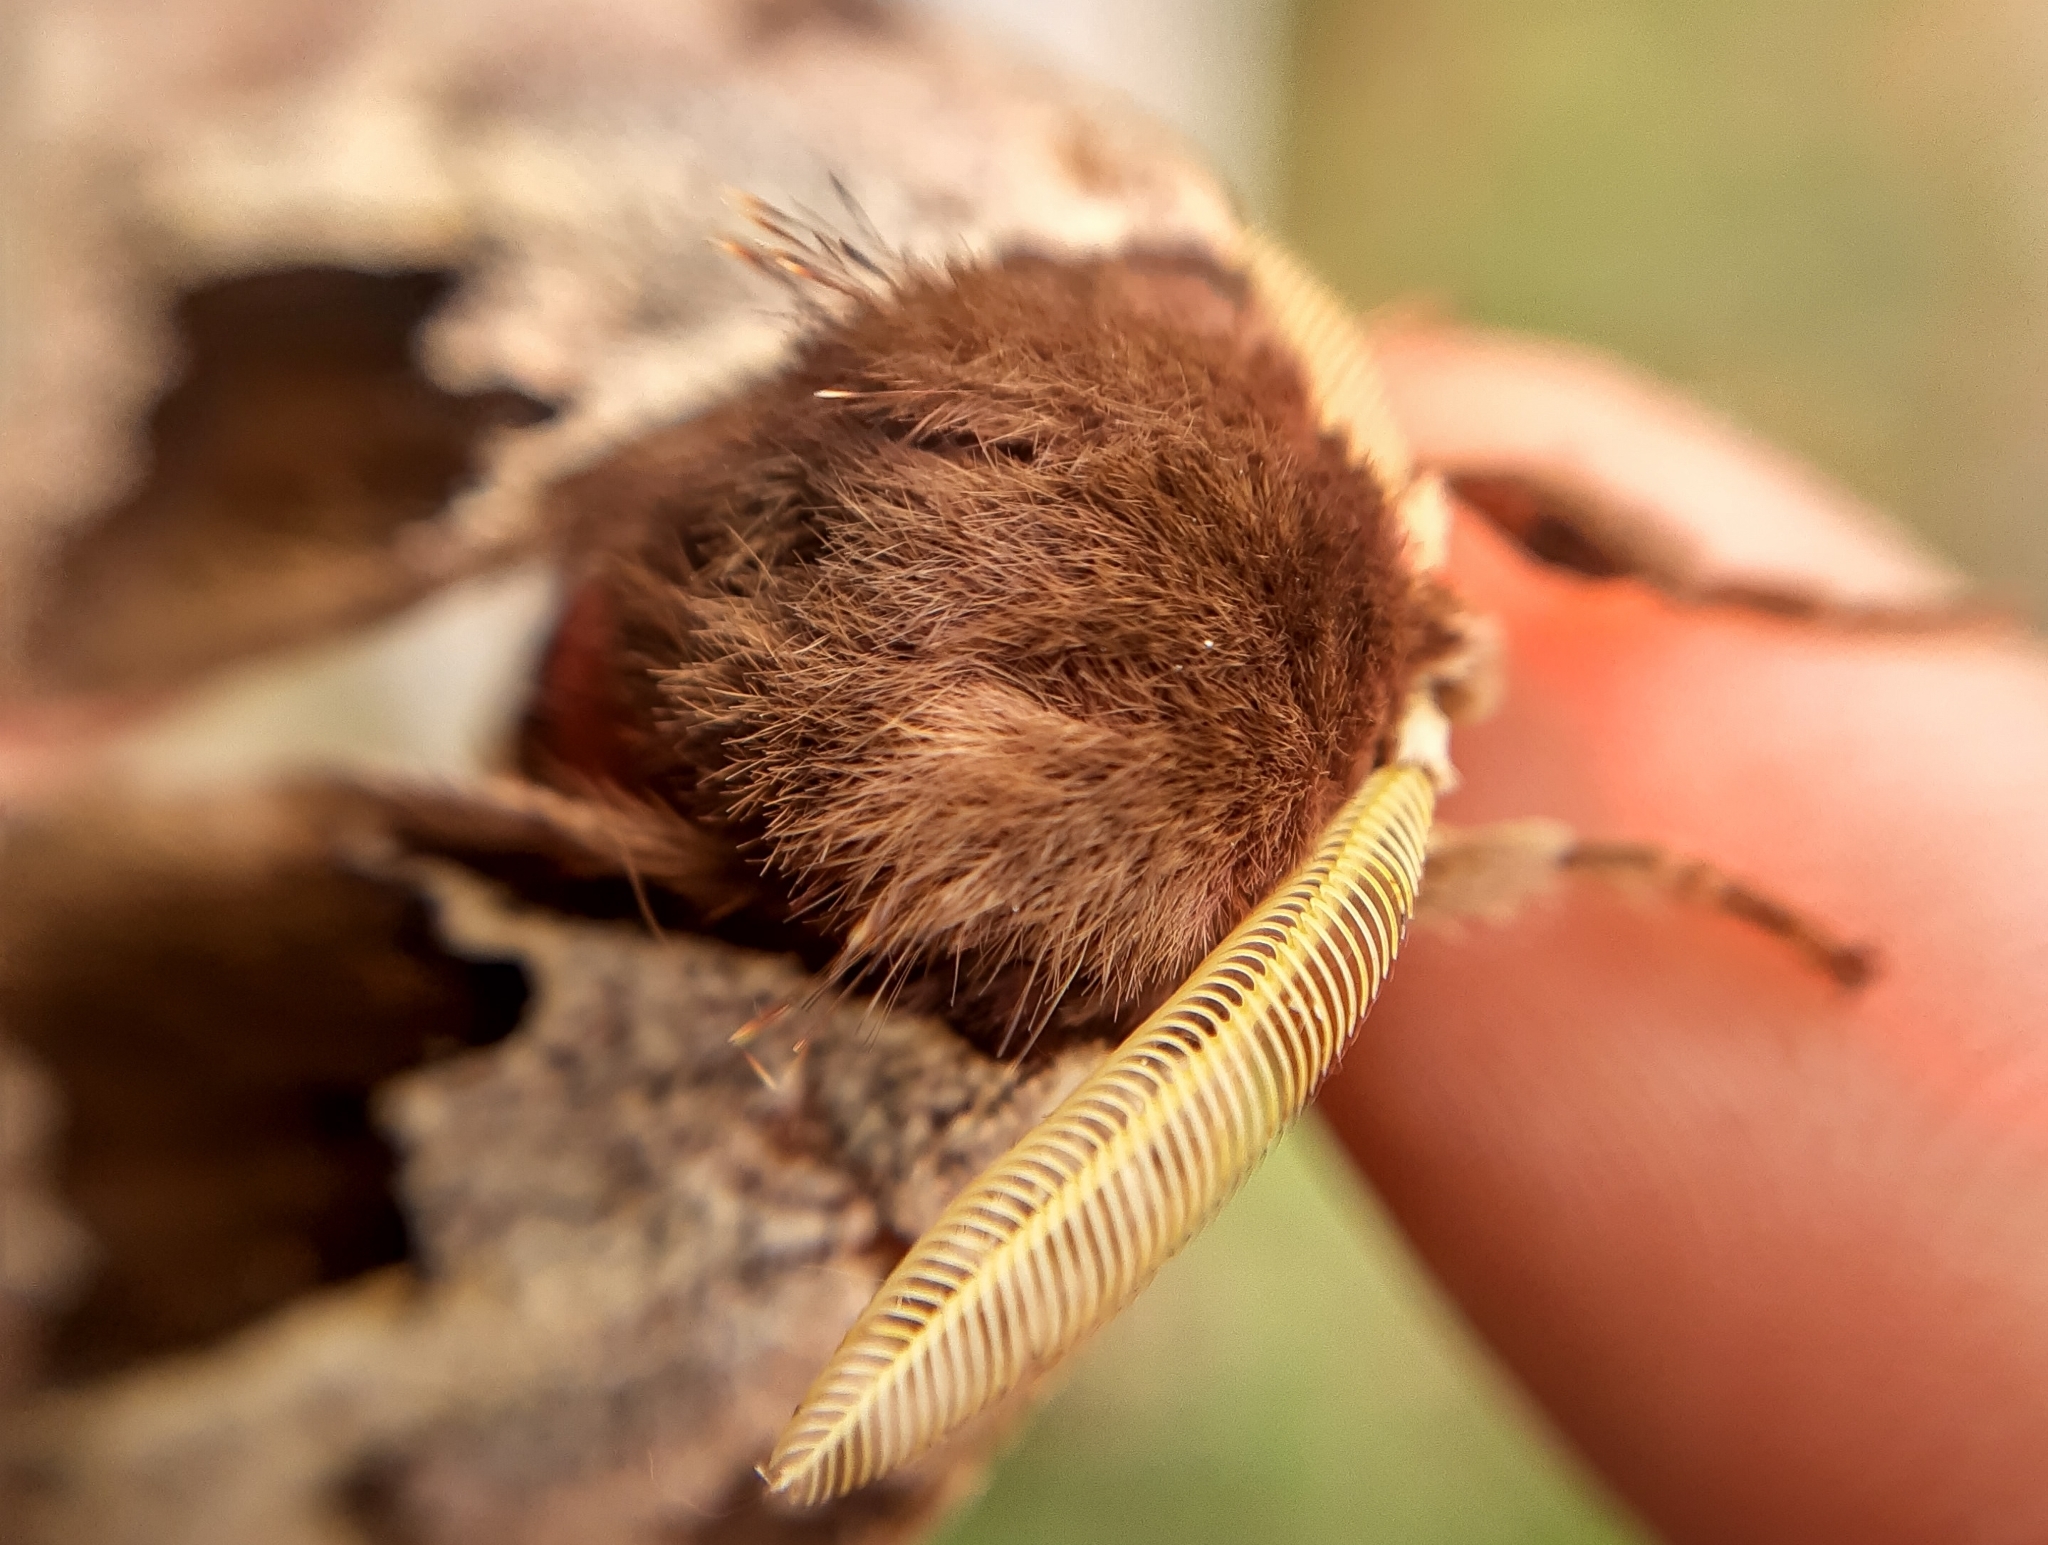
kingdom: Animalia
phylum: Arthropoda
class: Insecta
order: Lepidoptera
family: Saturniidae
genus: Dirphiopsis
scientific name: Dirphiopsis multicolor
